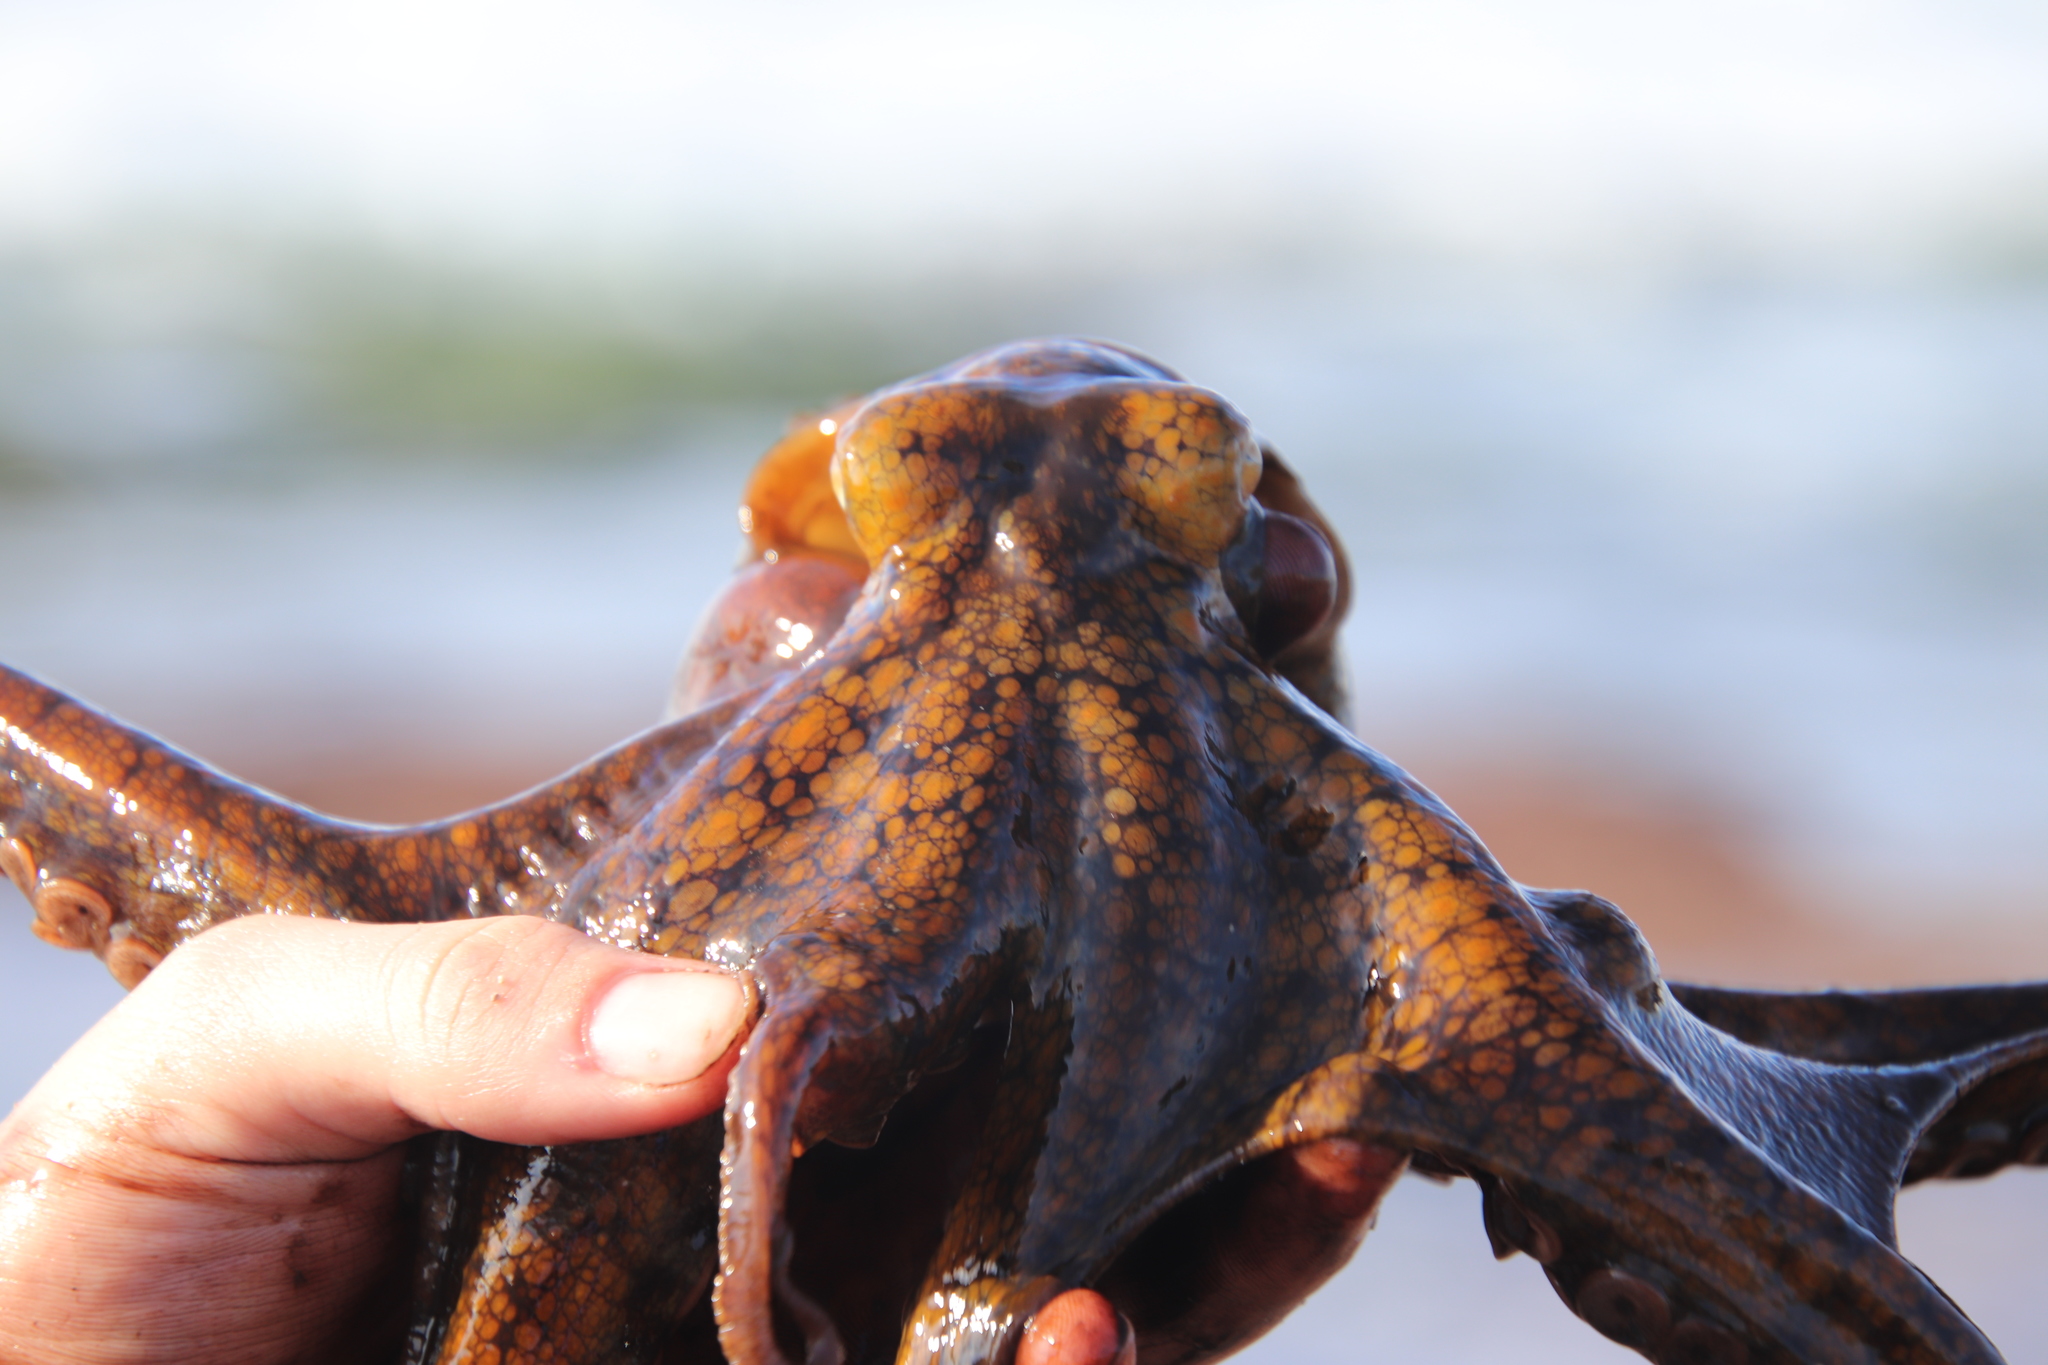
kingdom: Animalia
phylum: Mollusca
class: Cephalopoda
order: Octopoda
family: Octopodidae
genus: Octopus
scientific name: Octopus rubescens
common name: East pacific red octopus
